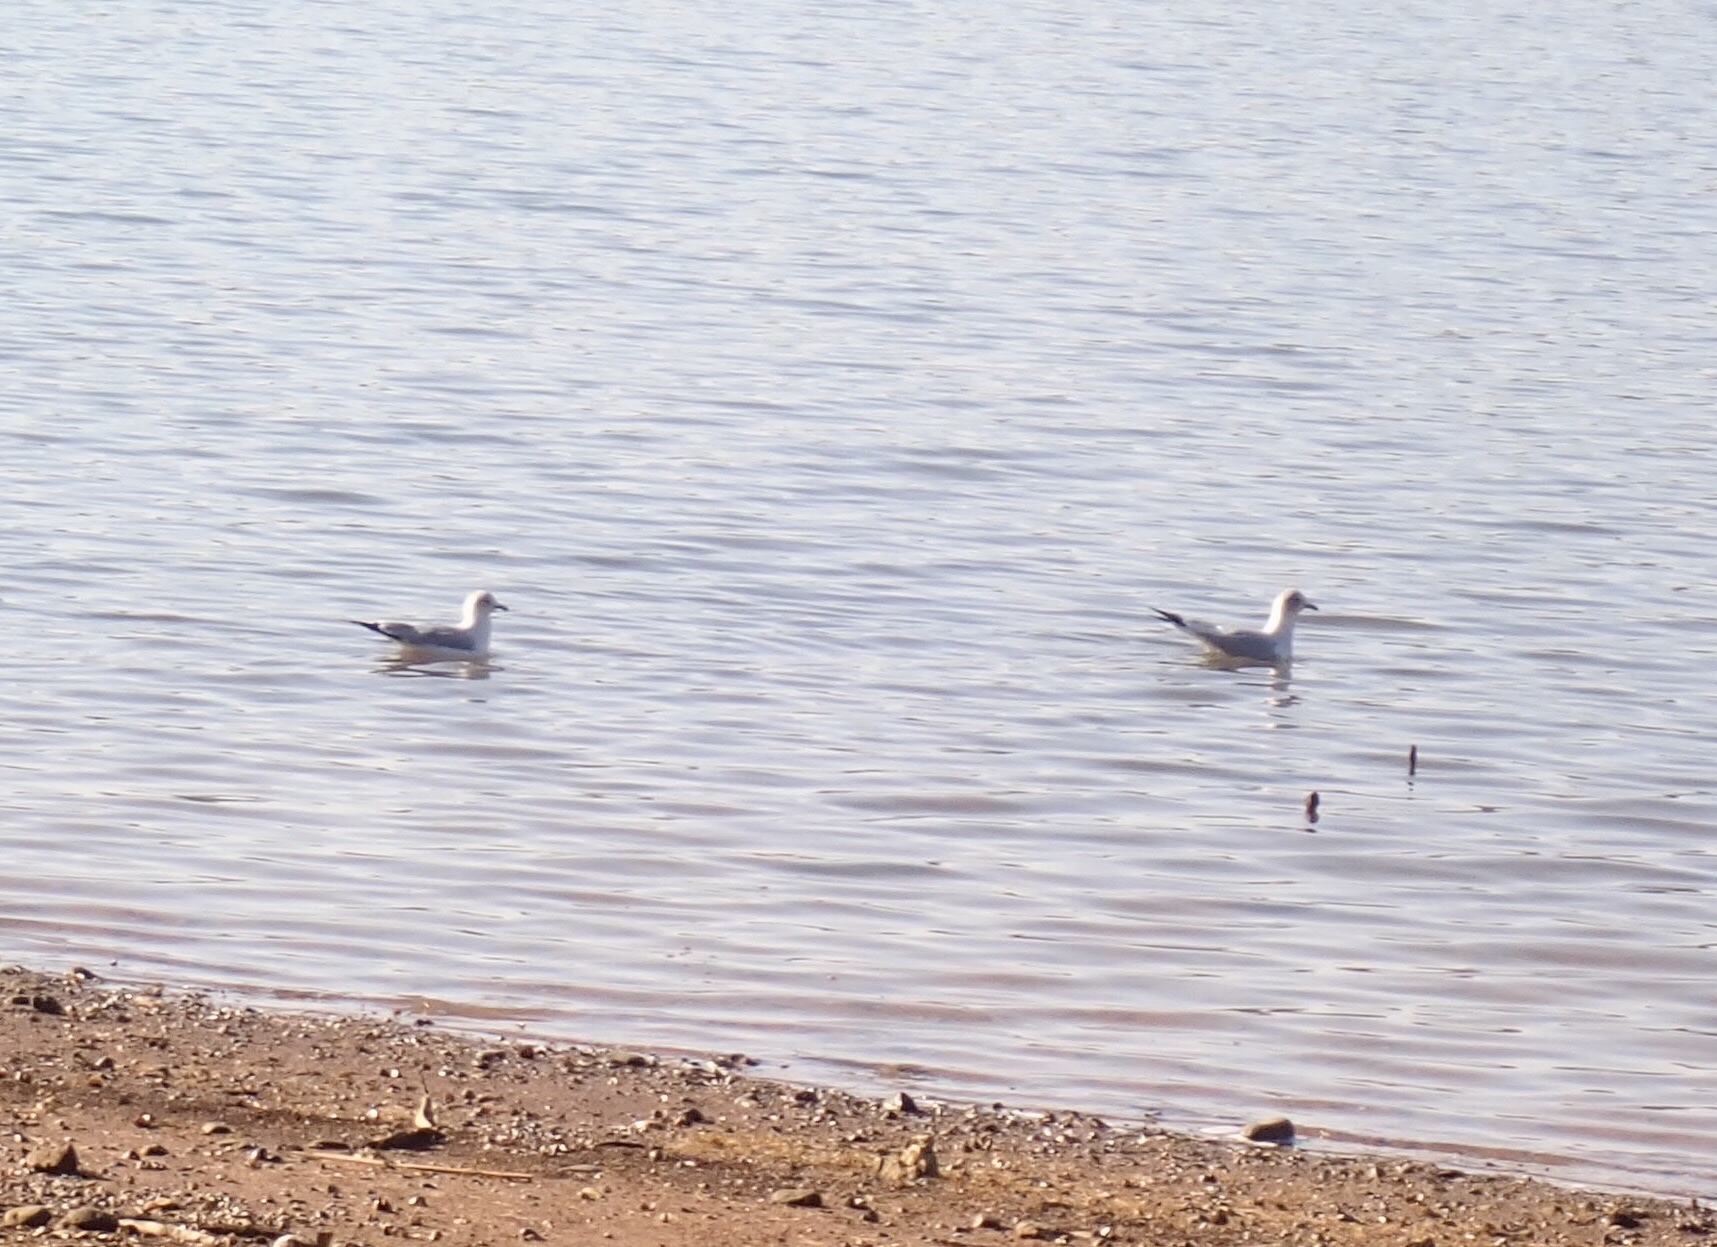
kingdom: Animalia
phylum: Chordata
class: Aves
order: Charadriiformes
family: Laridae
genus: Larus
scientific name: Larus delawarensis
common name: Ring-billed gull
